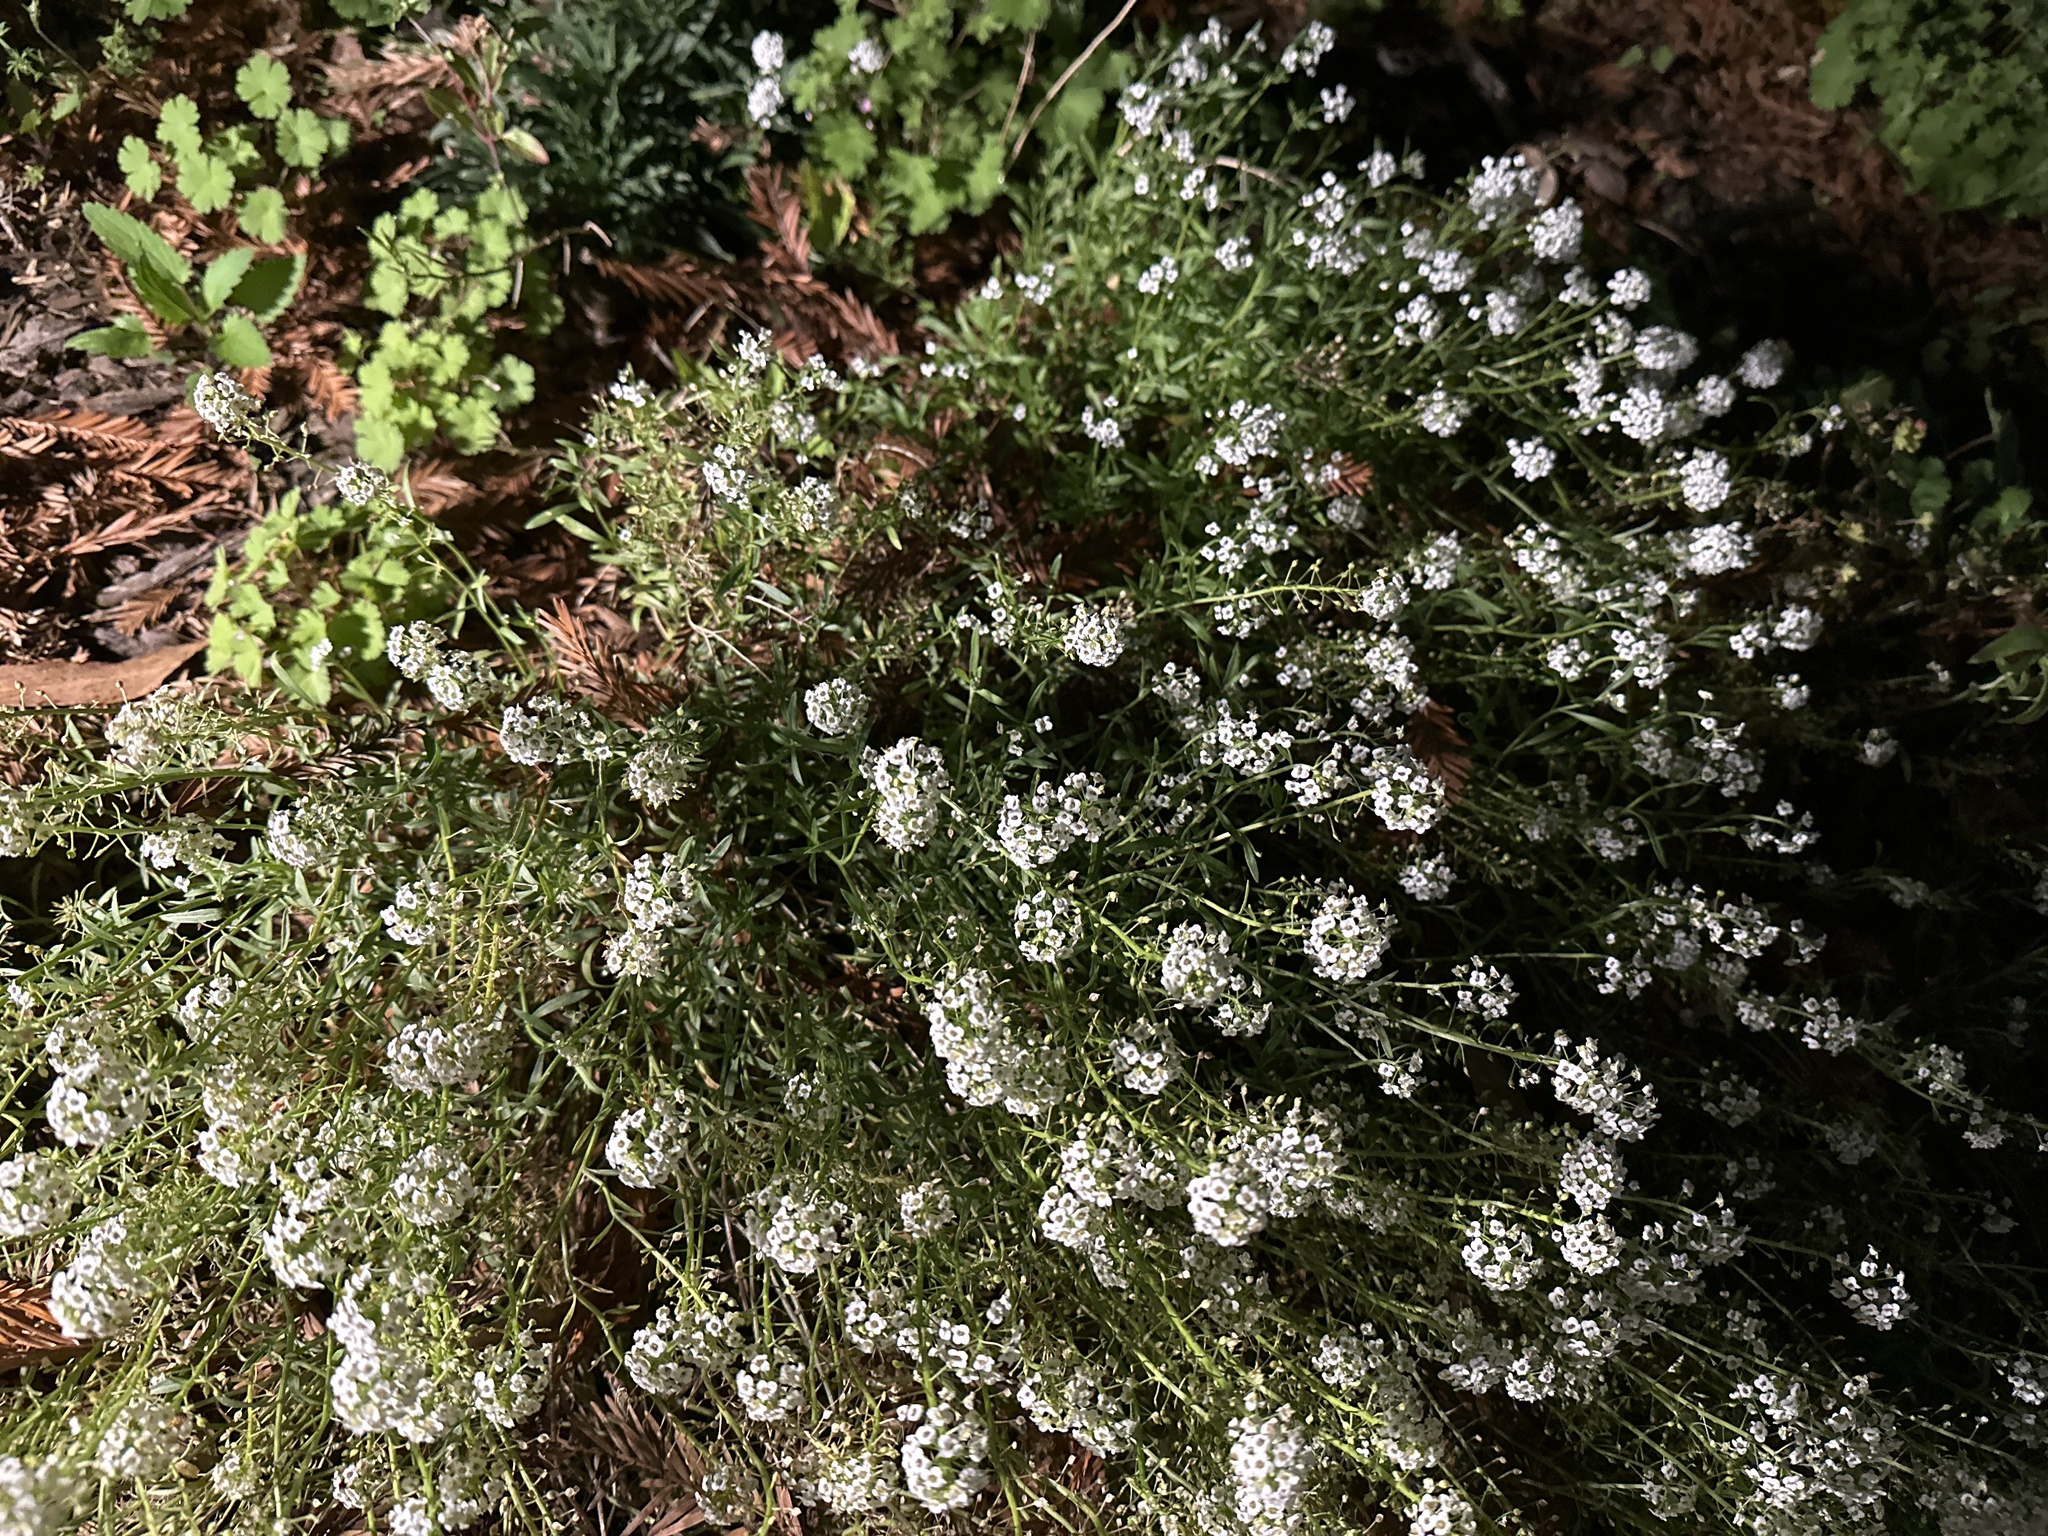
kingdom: Plantae
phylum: Tracheophyta
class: Magnoliopsida
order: Brassicales
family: Brassicaceae
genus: Lobularia
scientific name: Lobularia maritima
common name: Sweet alison
